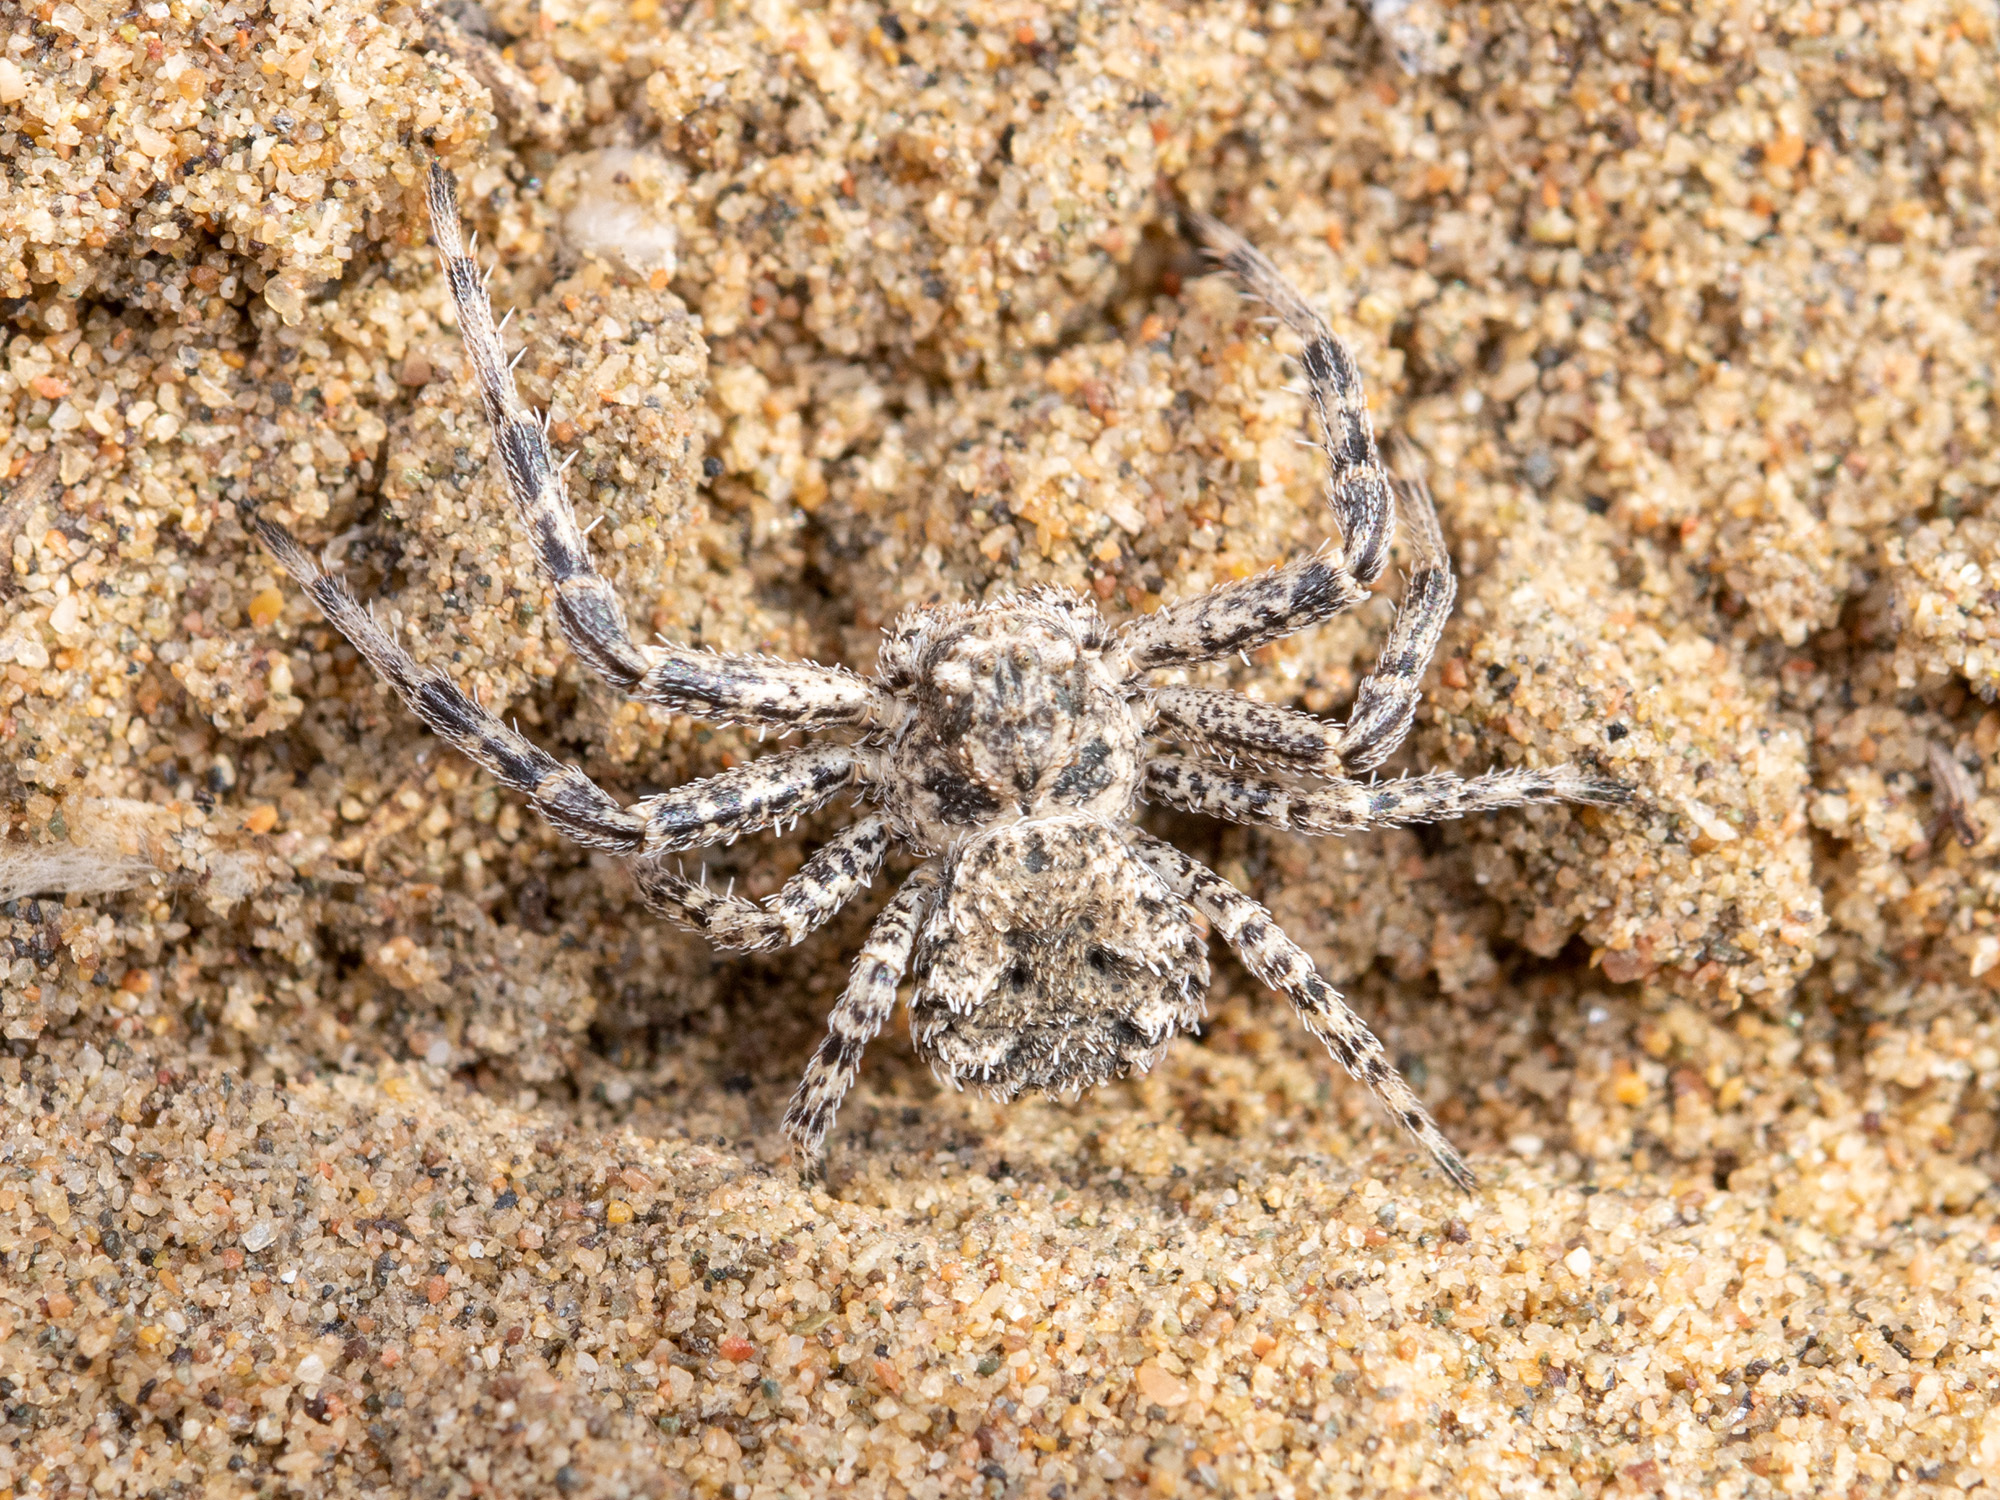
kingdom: Animalia
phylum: Arthropoda
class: Arachnida
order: Araneae
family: Thomisidae
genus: Ozyptila
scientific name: Ozyptila lugubris
